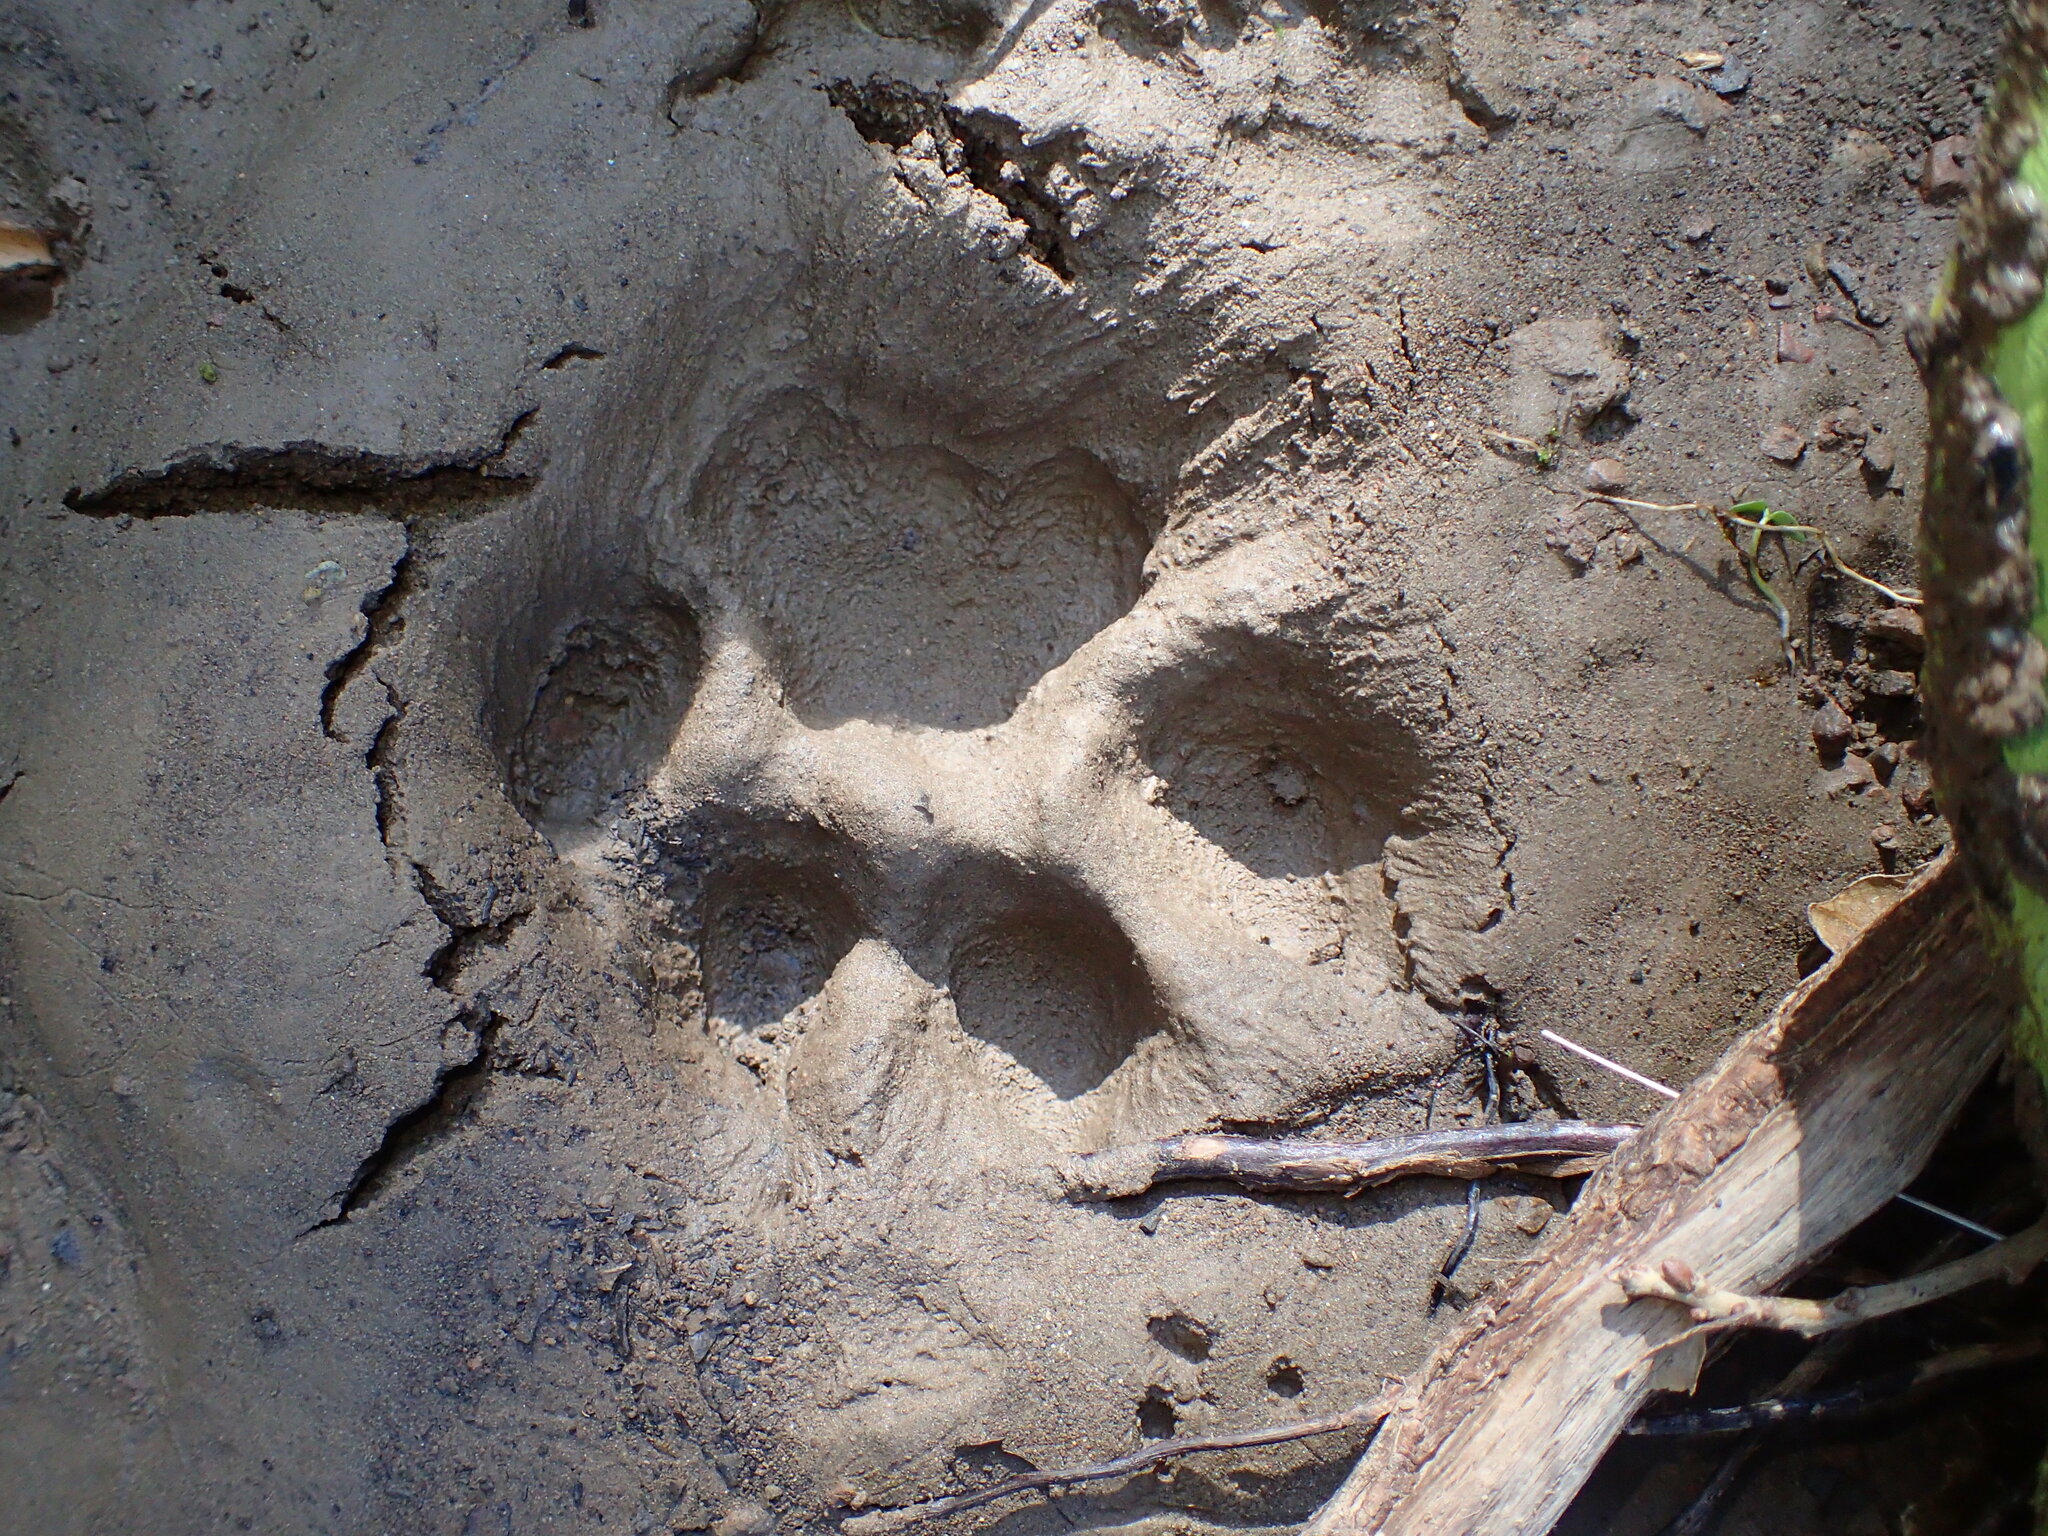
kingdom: Animalia
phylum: Chordata
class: Mammalia
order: Carnivora
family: Felidae
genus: Puma
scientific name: Puma concolor
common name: Puma
